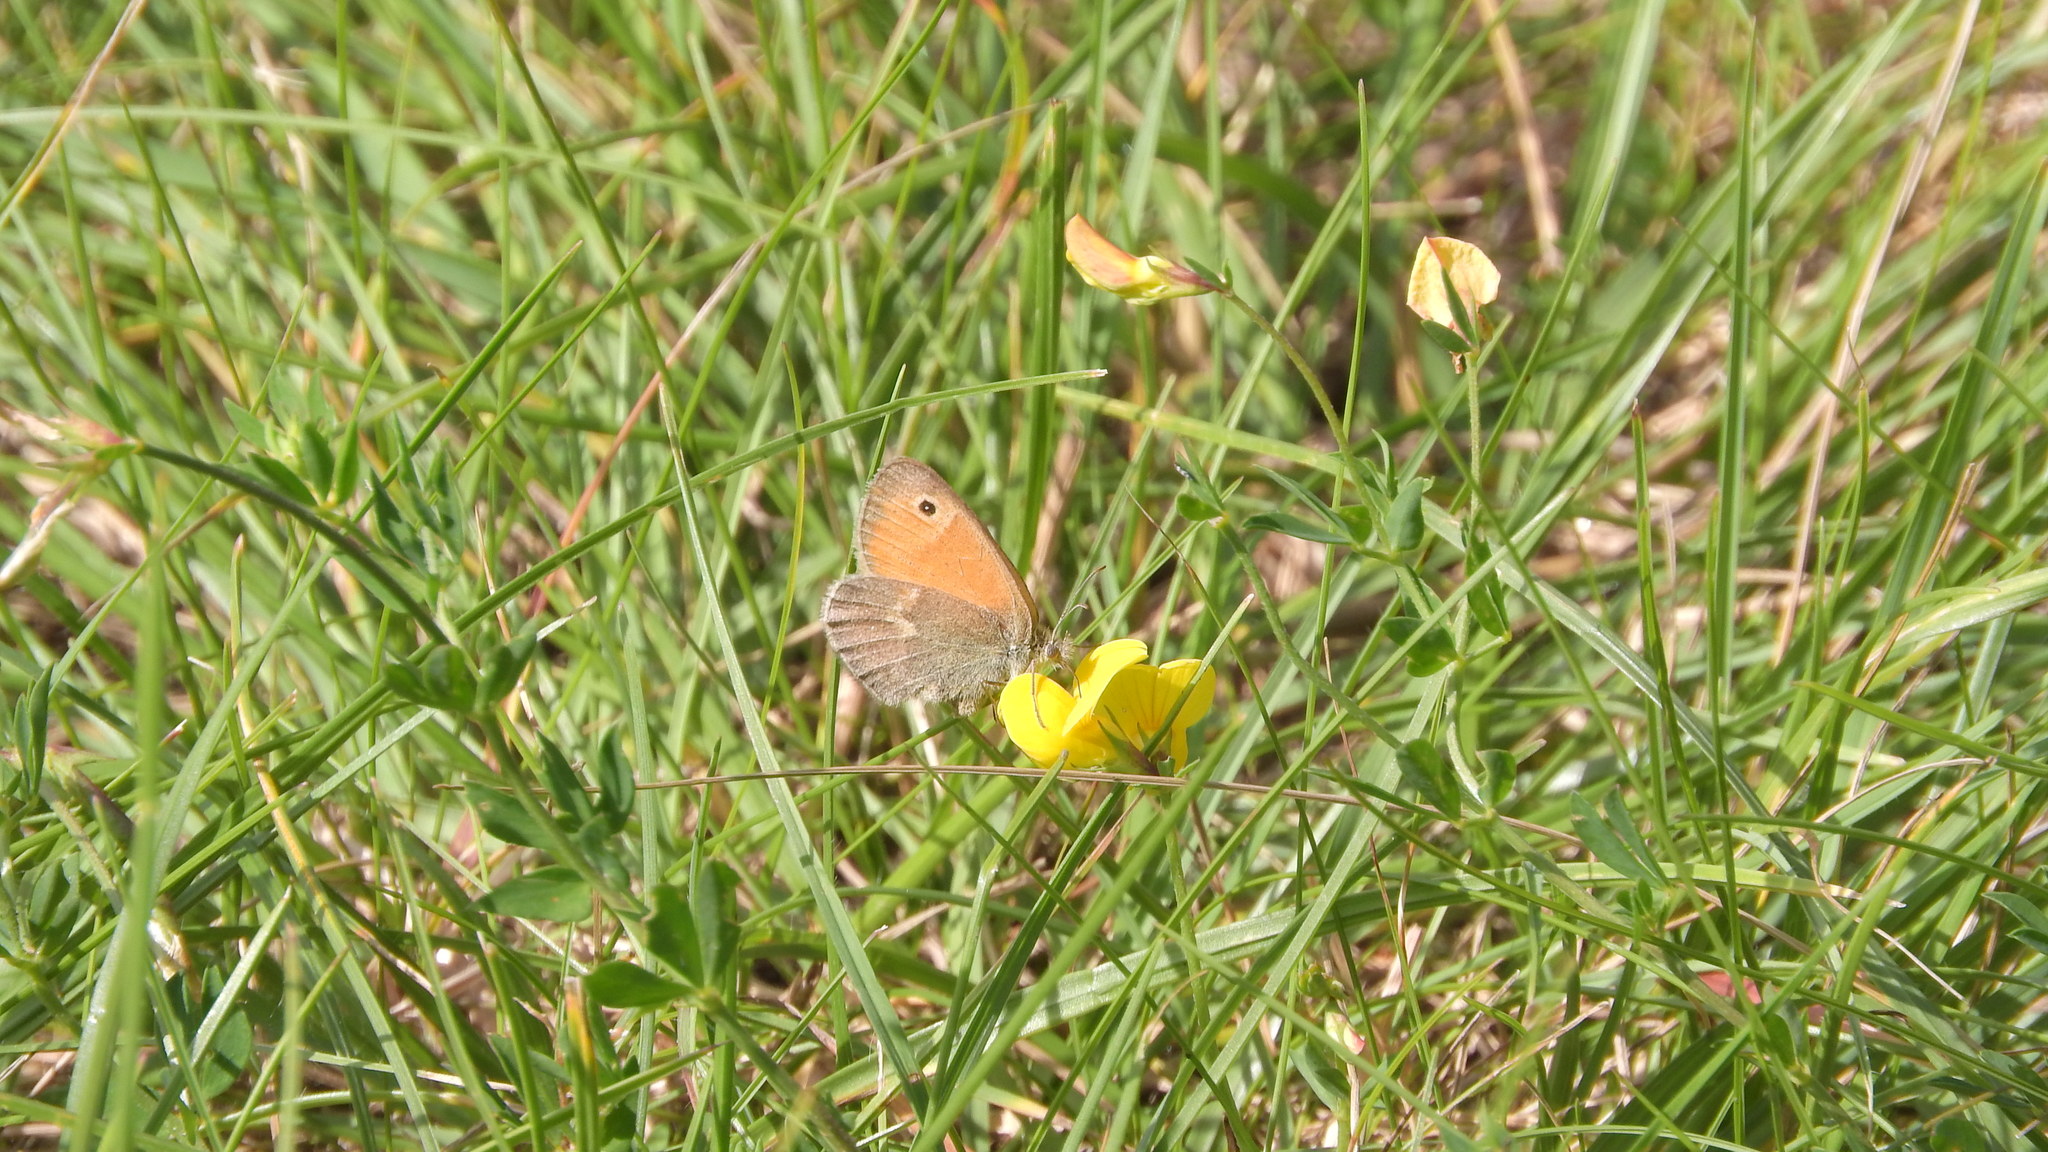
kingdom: Animalia
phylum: Arthropoda
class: Insecta
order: Lepidoptera
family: Nymphalidae
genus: Coenonympha
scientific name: Coenonympha pamphilus
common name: Small heath
